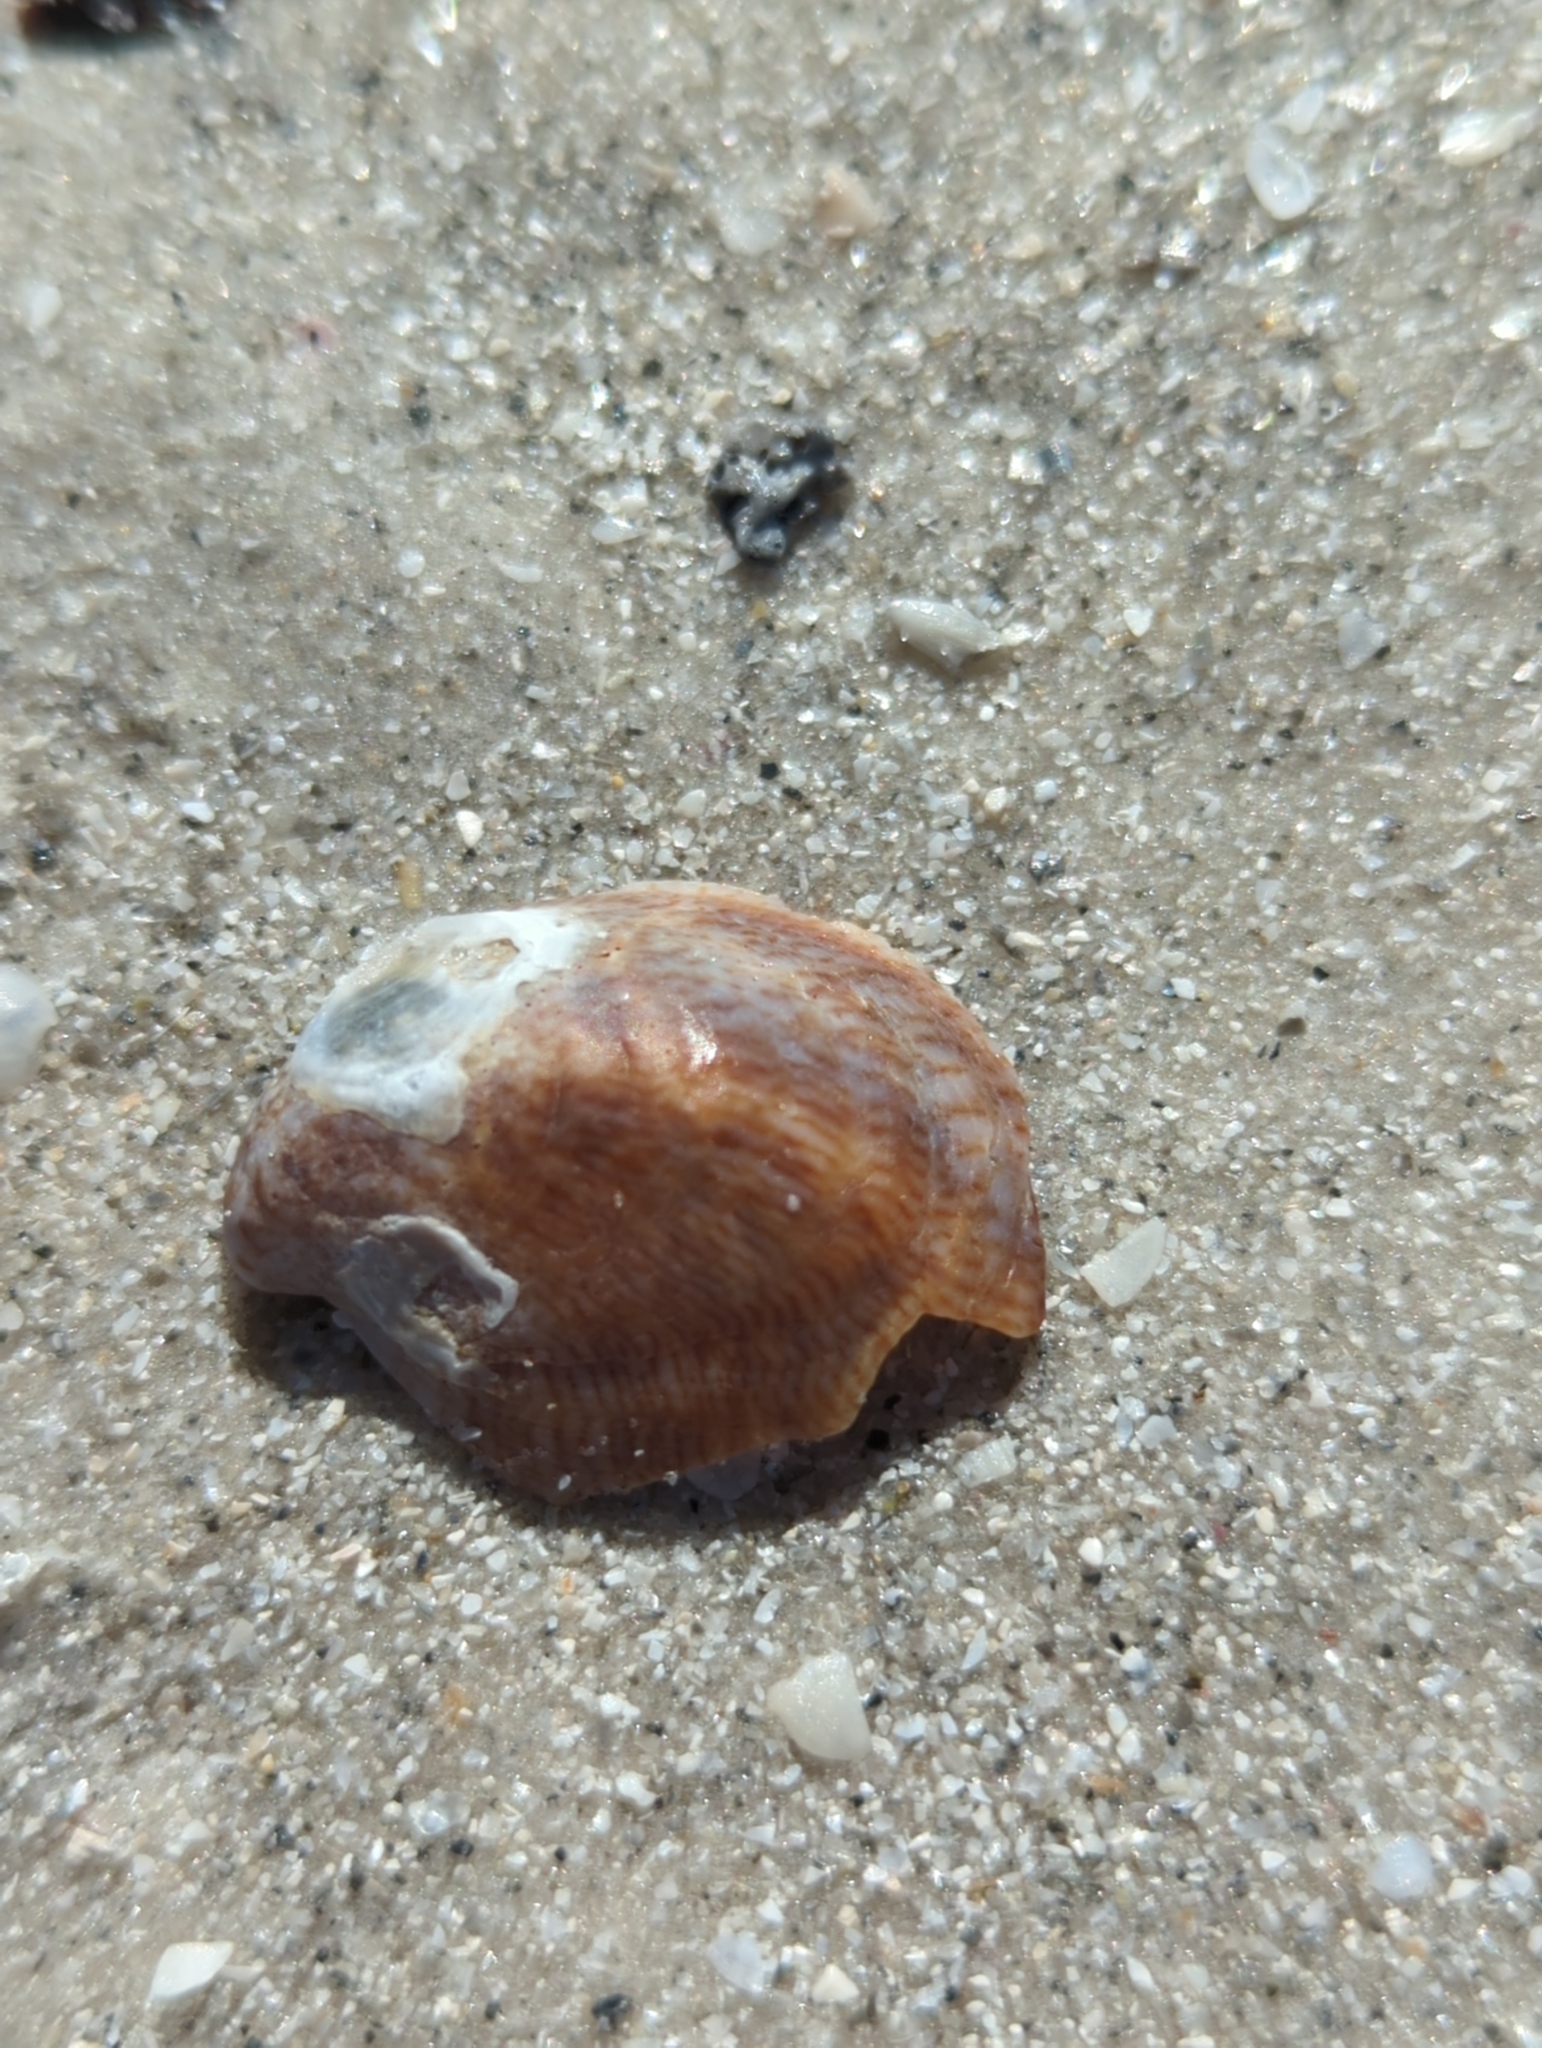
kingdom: Animalia
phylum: Mollusca
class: Gastropoda
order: Littorinimorpha
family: Calyptraeidae
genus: Crepidula
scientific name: Crepidula fornicata
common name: Slipper limpet
